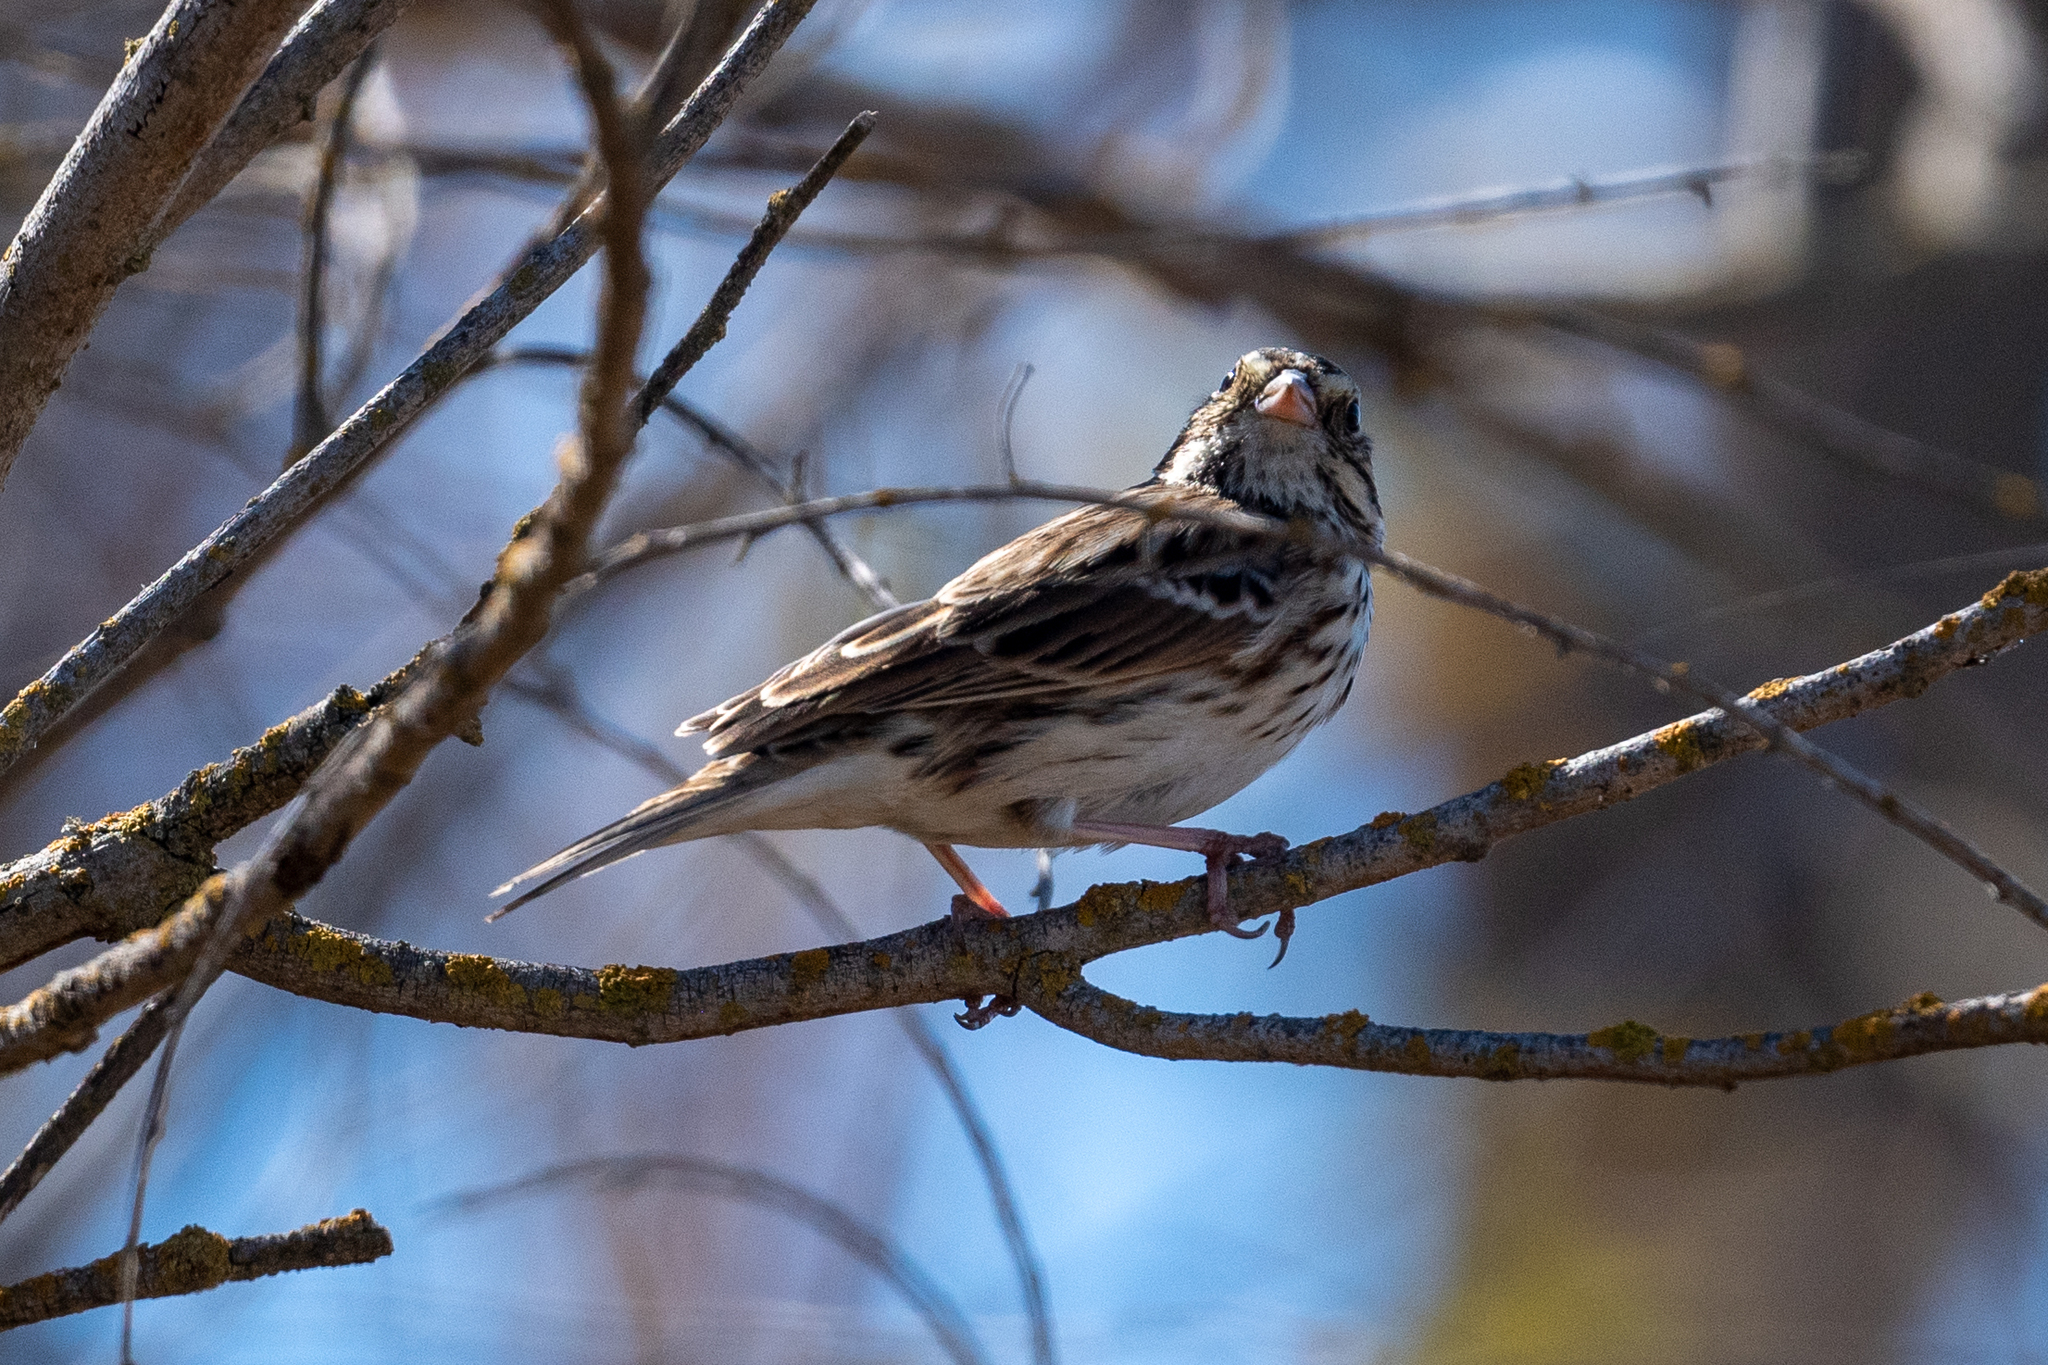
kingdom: Animalia
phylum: Chordata
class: Aves
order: Passeriformes
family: Passerellidae
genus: Passerculus
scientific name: Passerculus sandwichensis
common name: Savannah sparrow
